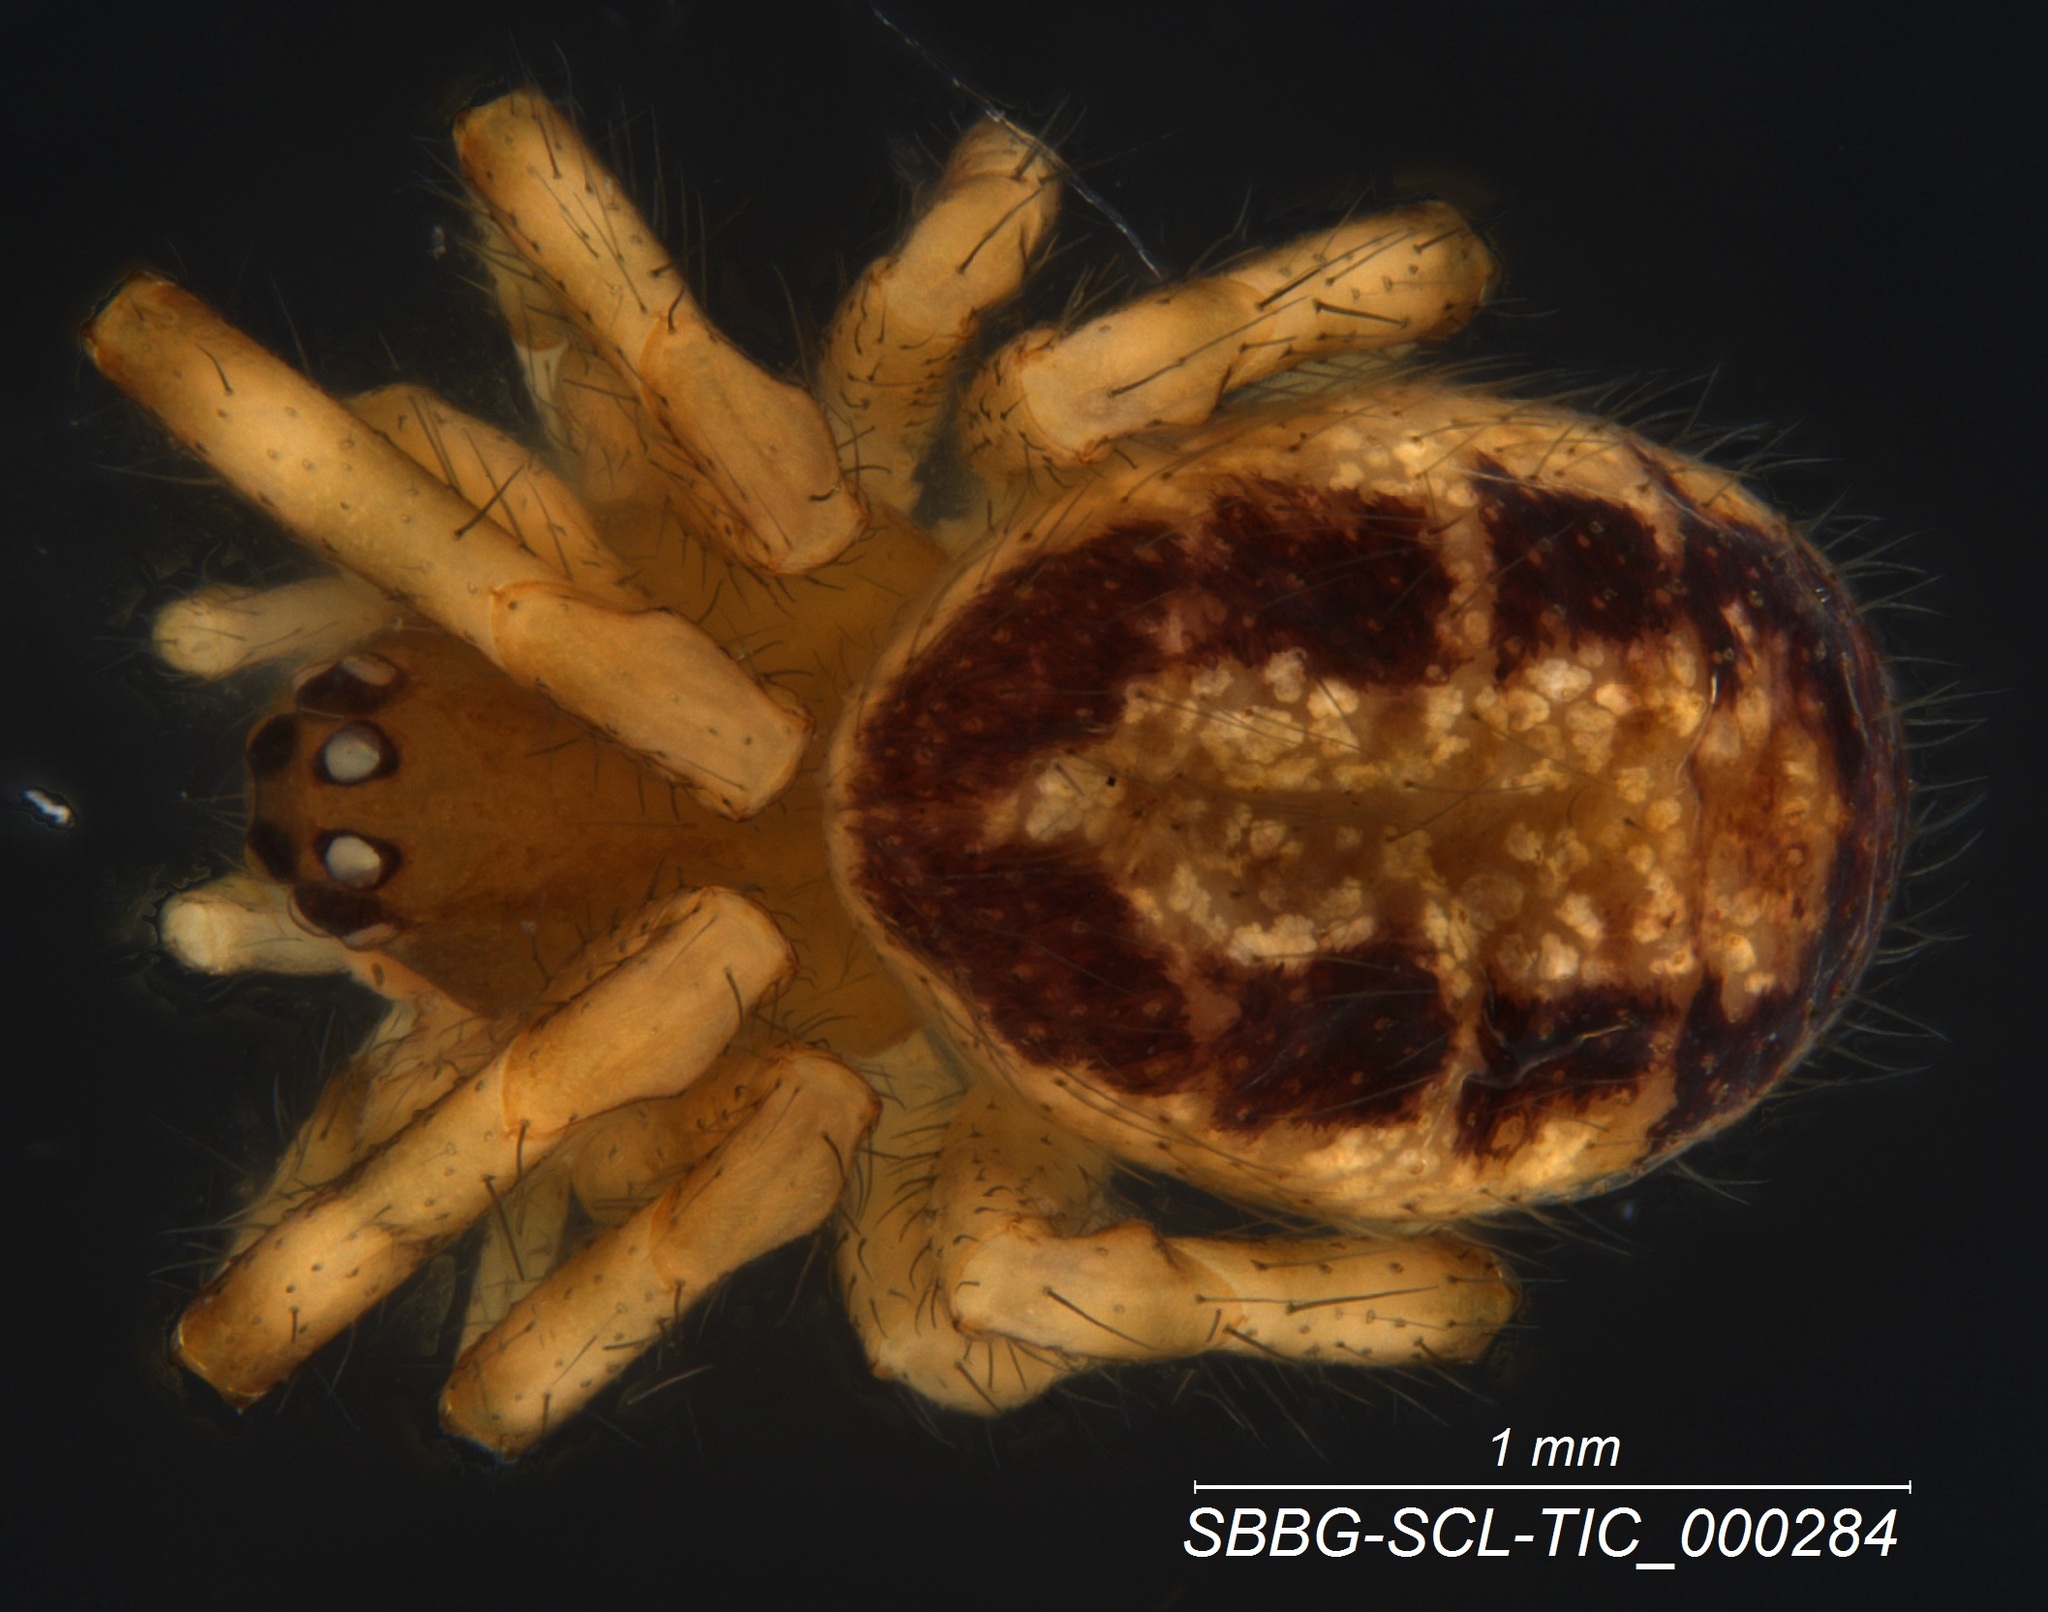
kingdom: Animalia
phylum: Arthropoda
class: Arachnida
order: Araneae
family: Theridiidae
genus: Steatoda
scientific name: Steatoda nobilis
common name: Cobweb weaver
